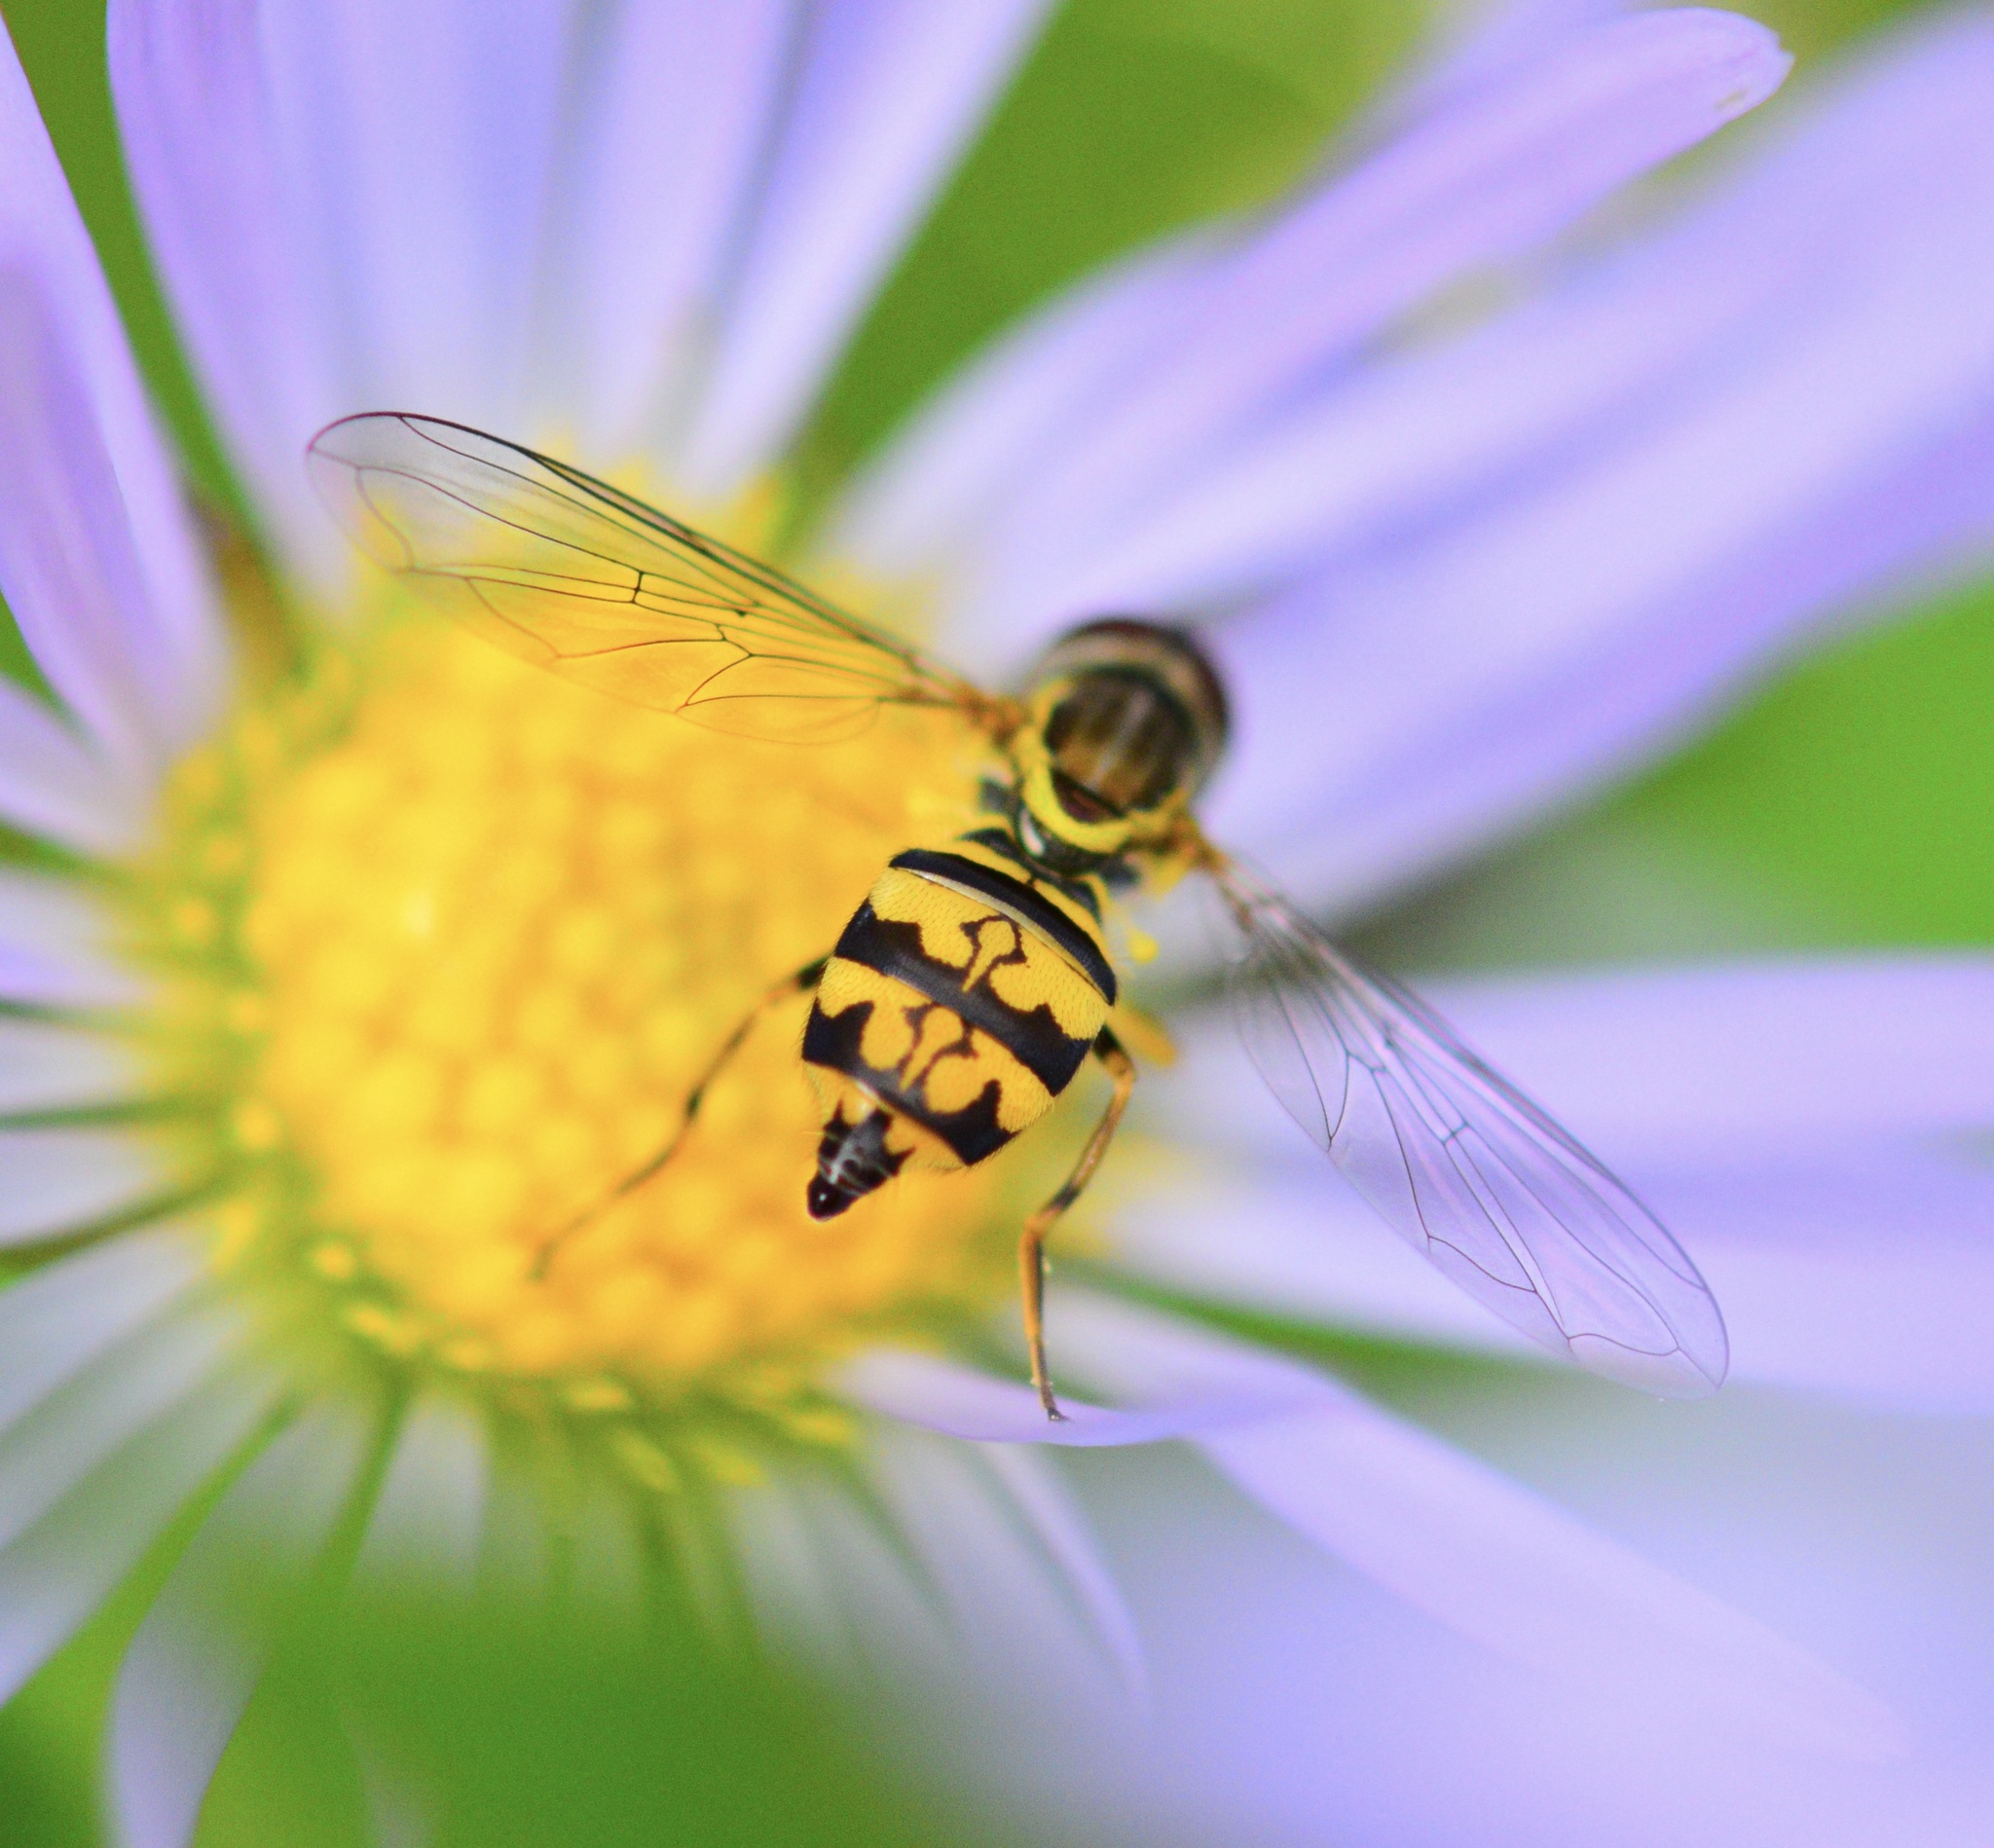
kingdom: Animalia
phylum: Arthropoda
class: Insecta
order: Diptera
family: Syrphidae
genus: Toxomerus
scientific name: Toxomerus geminatus
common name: Eastern calligrapher
